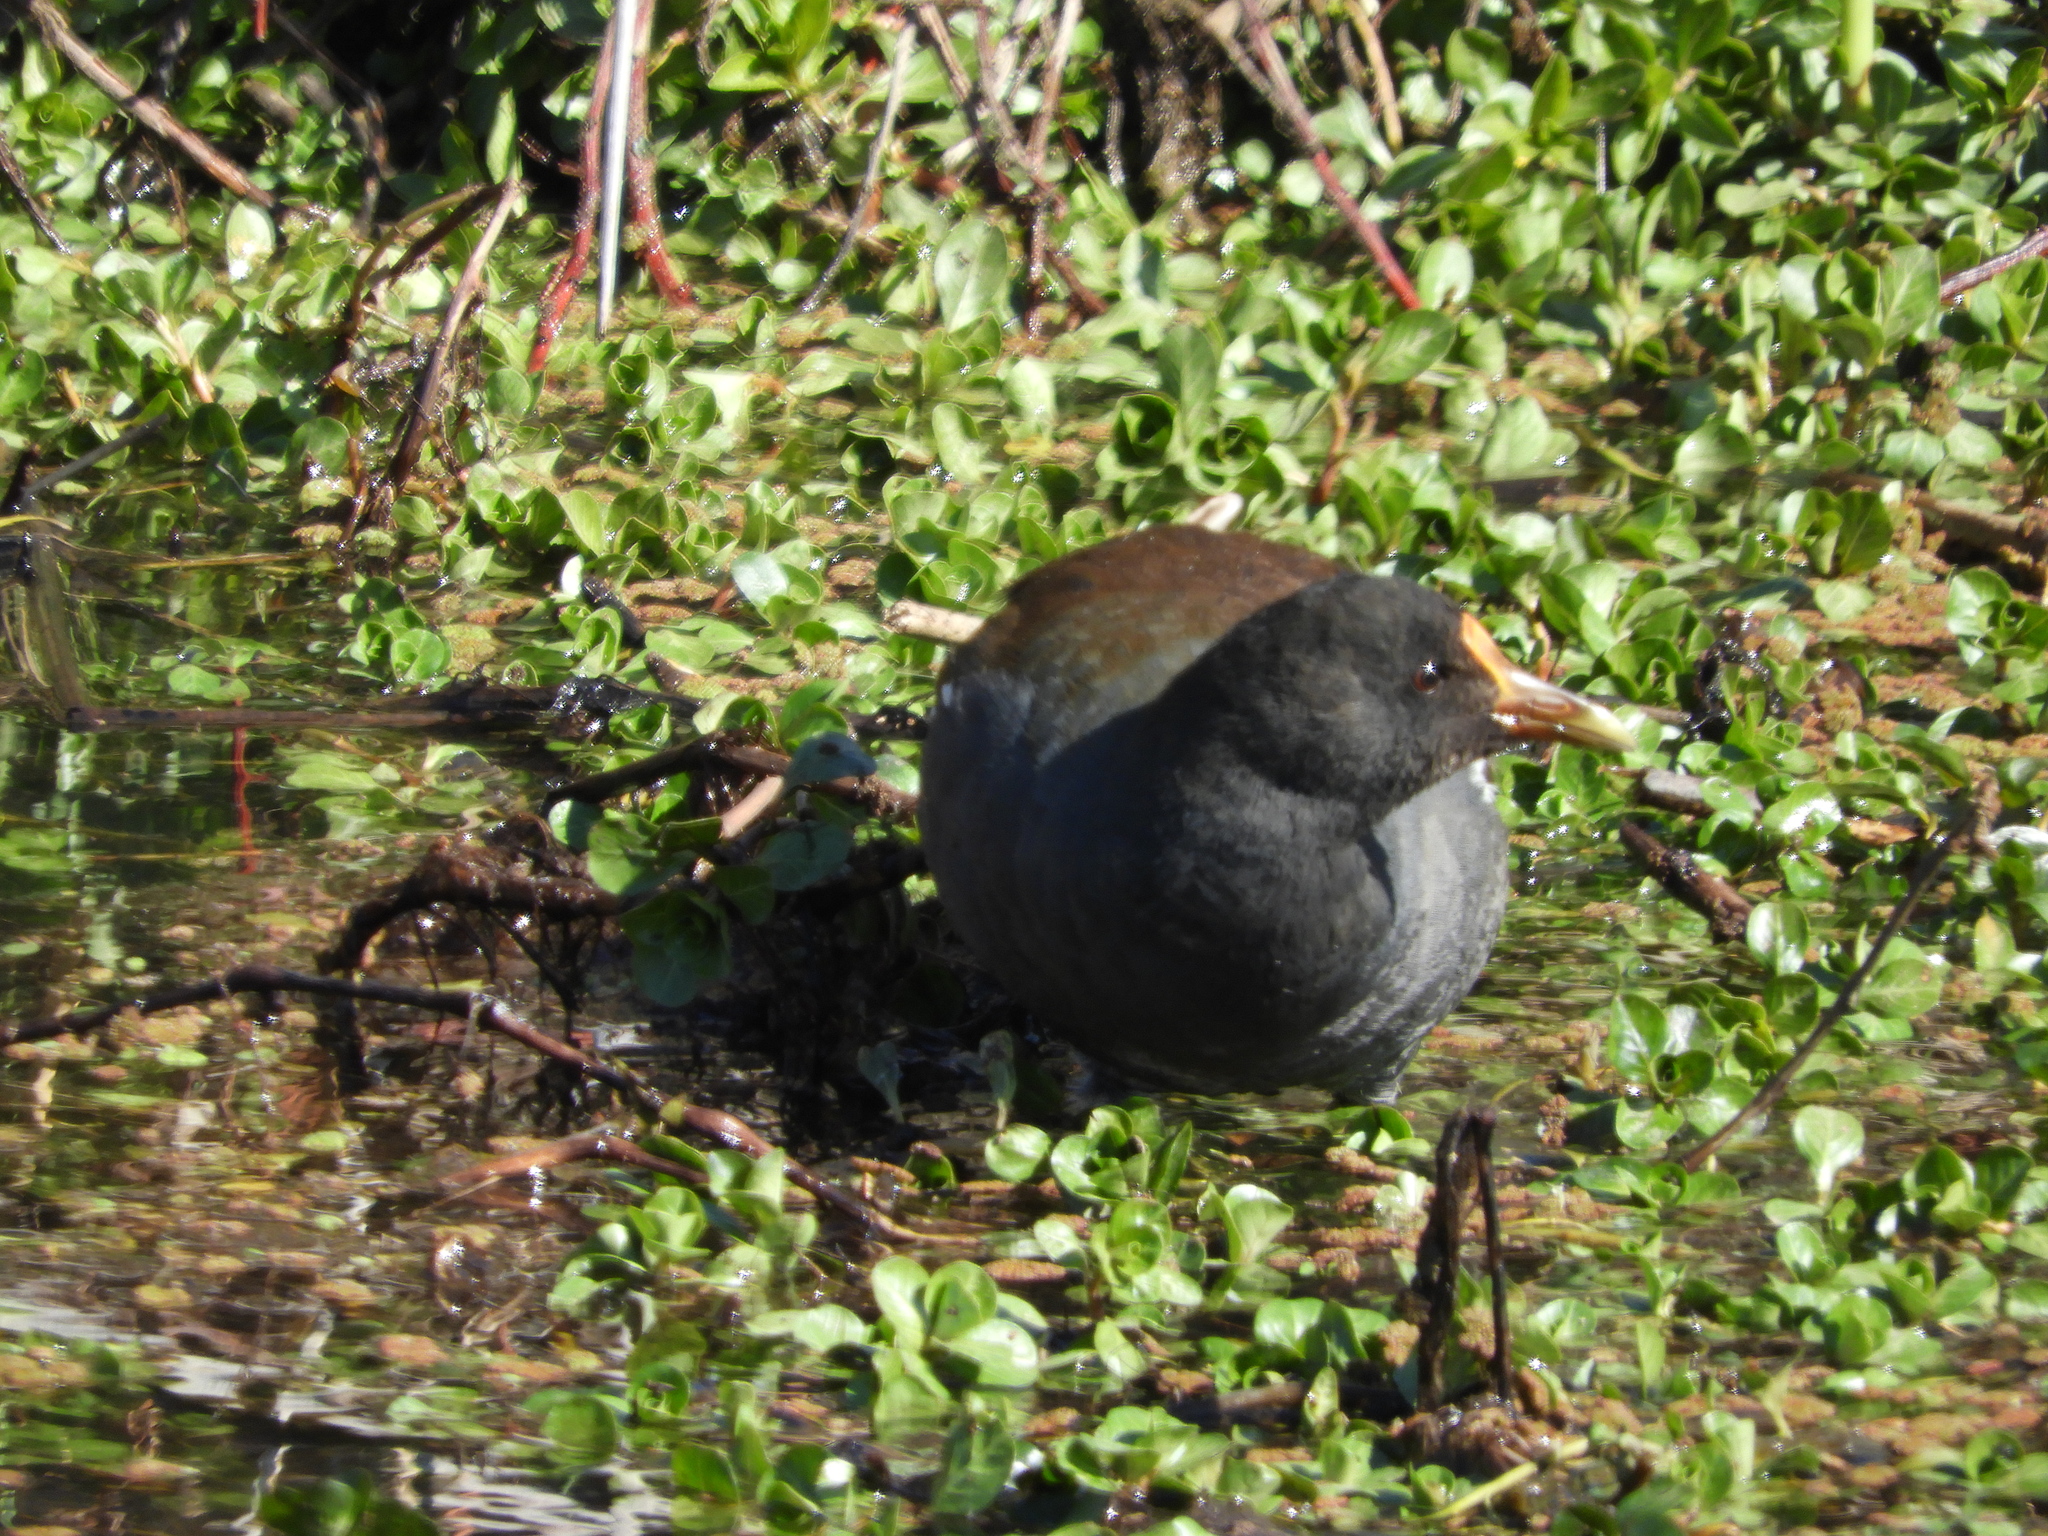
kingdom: Animalia
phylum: Chordata
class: Aves
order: Gruiformes
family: Rallidae
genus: Gallinula
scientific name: Gallinula chloropus
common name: Common moorhen
